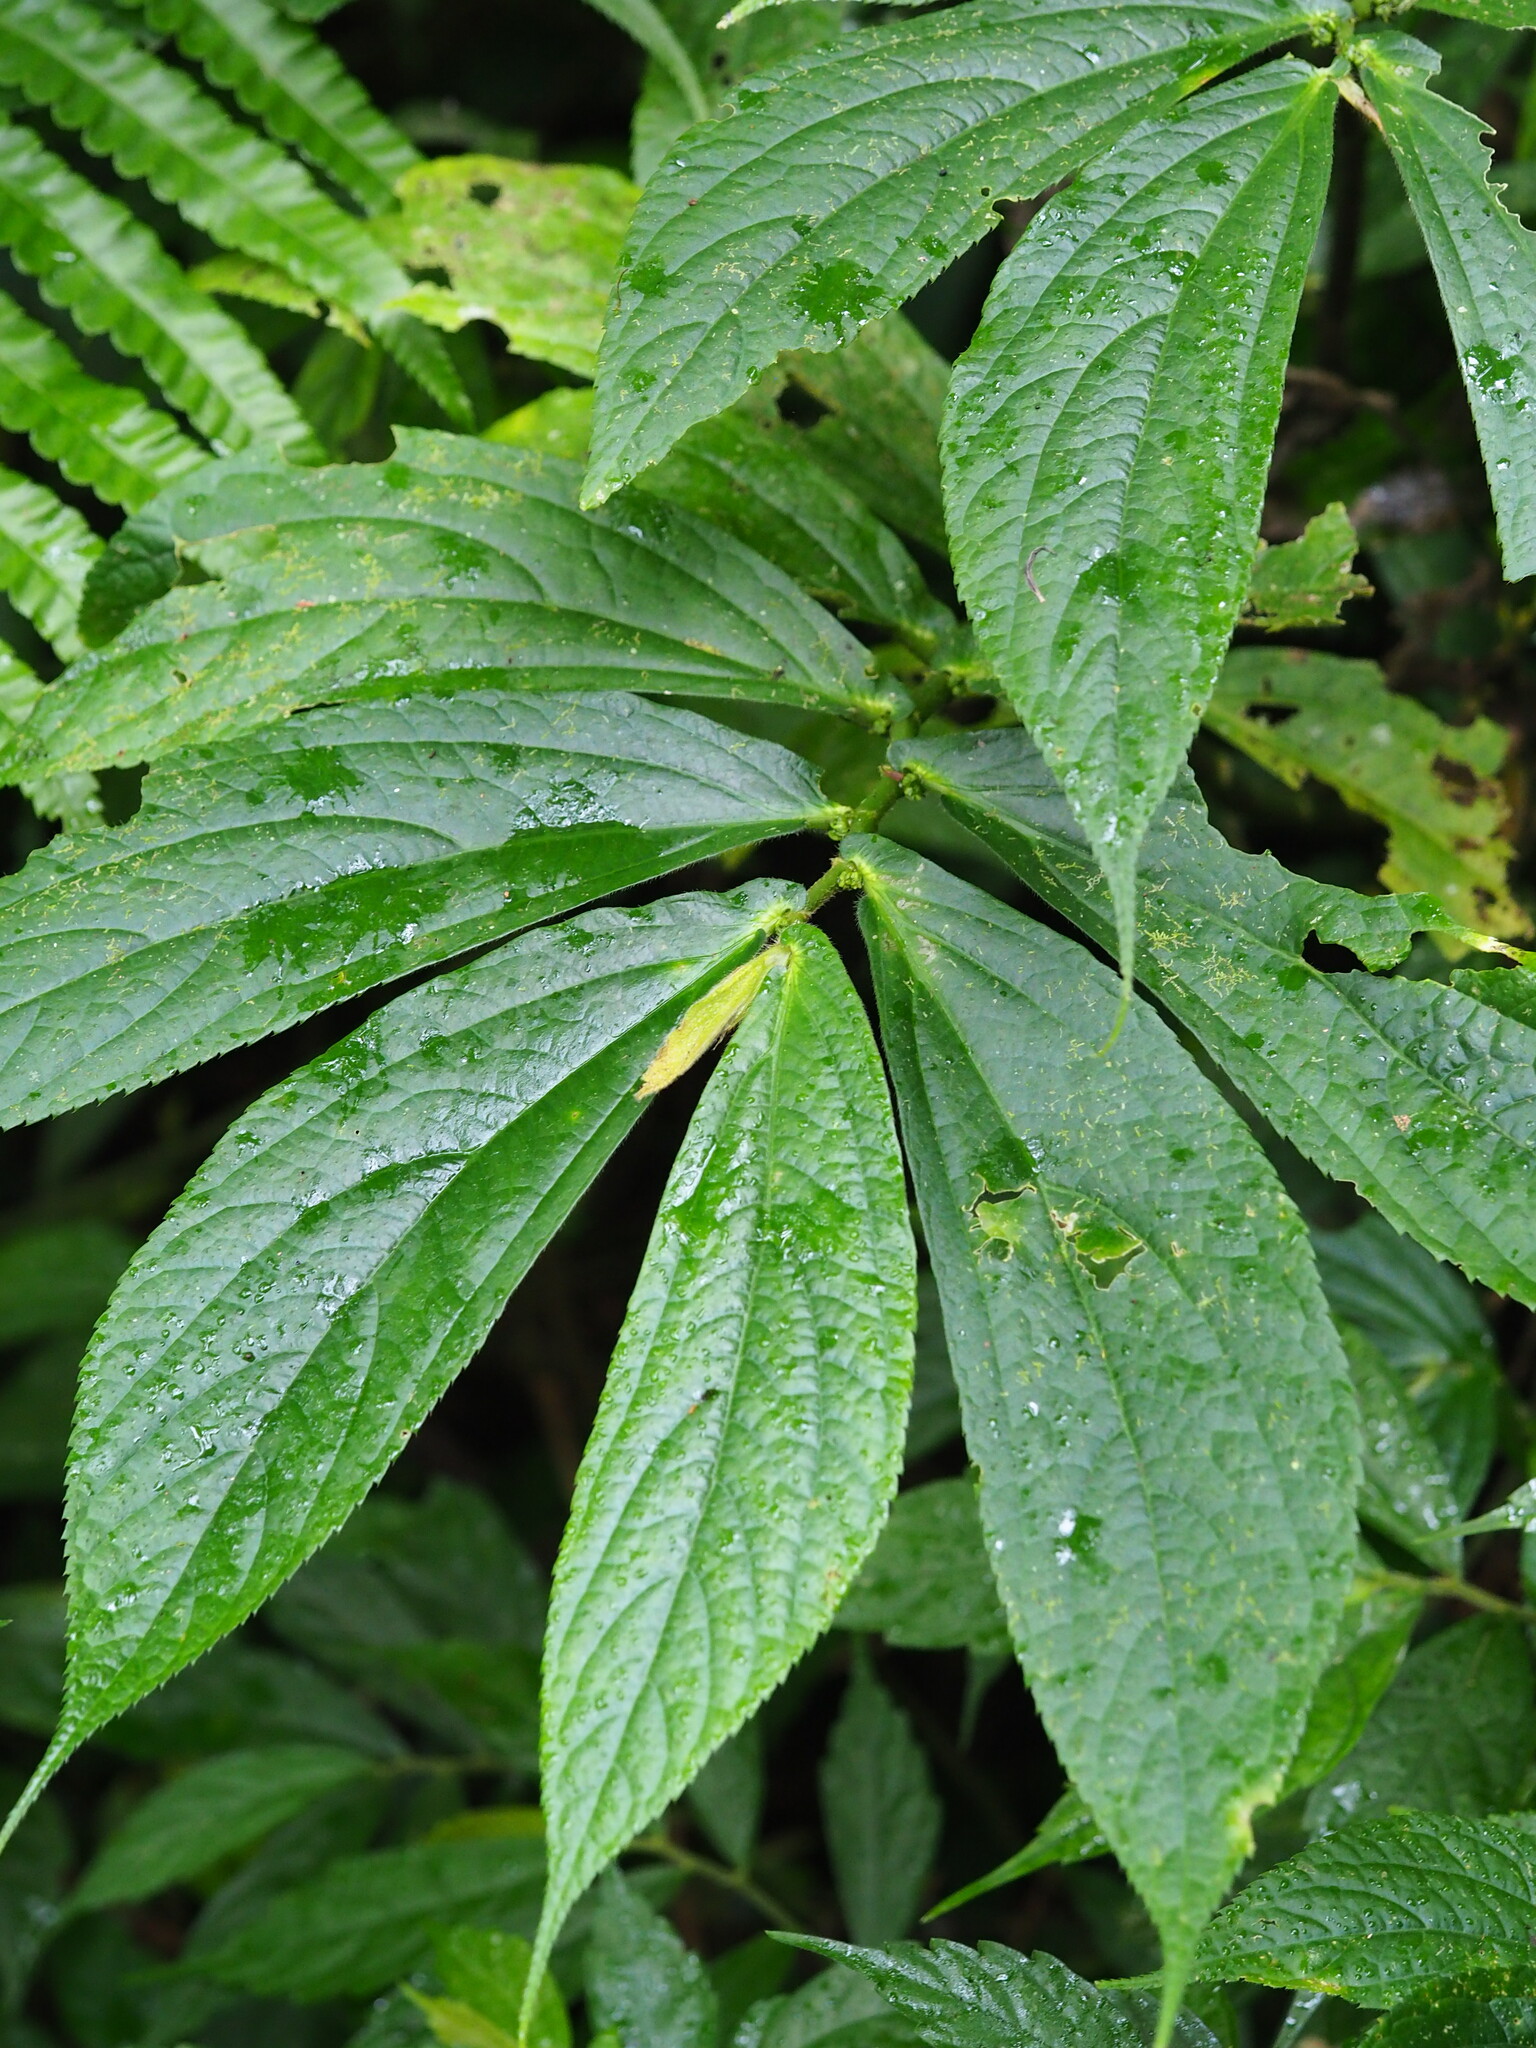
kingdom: Plantae
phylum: Tracheophyta
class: Magnoliopsida
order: Rosales
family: Urticaceae
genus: Elatostema
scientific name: Elatostema platyphyllum
